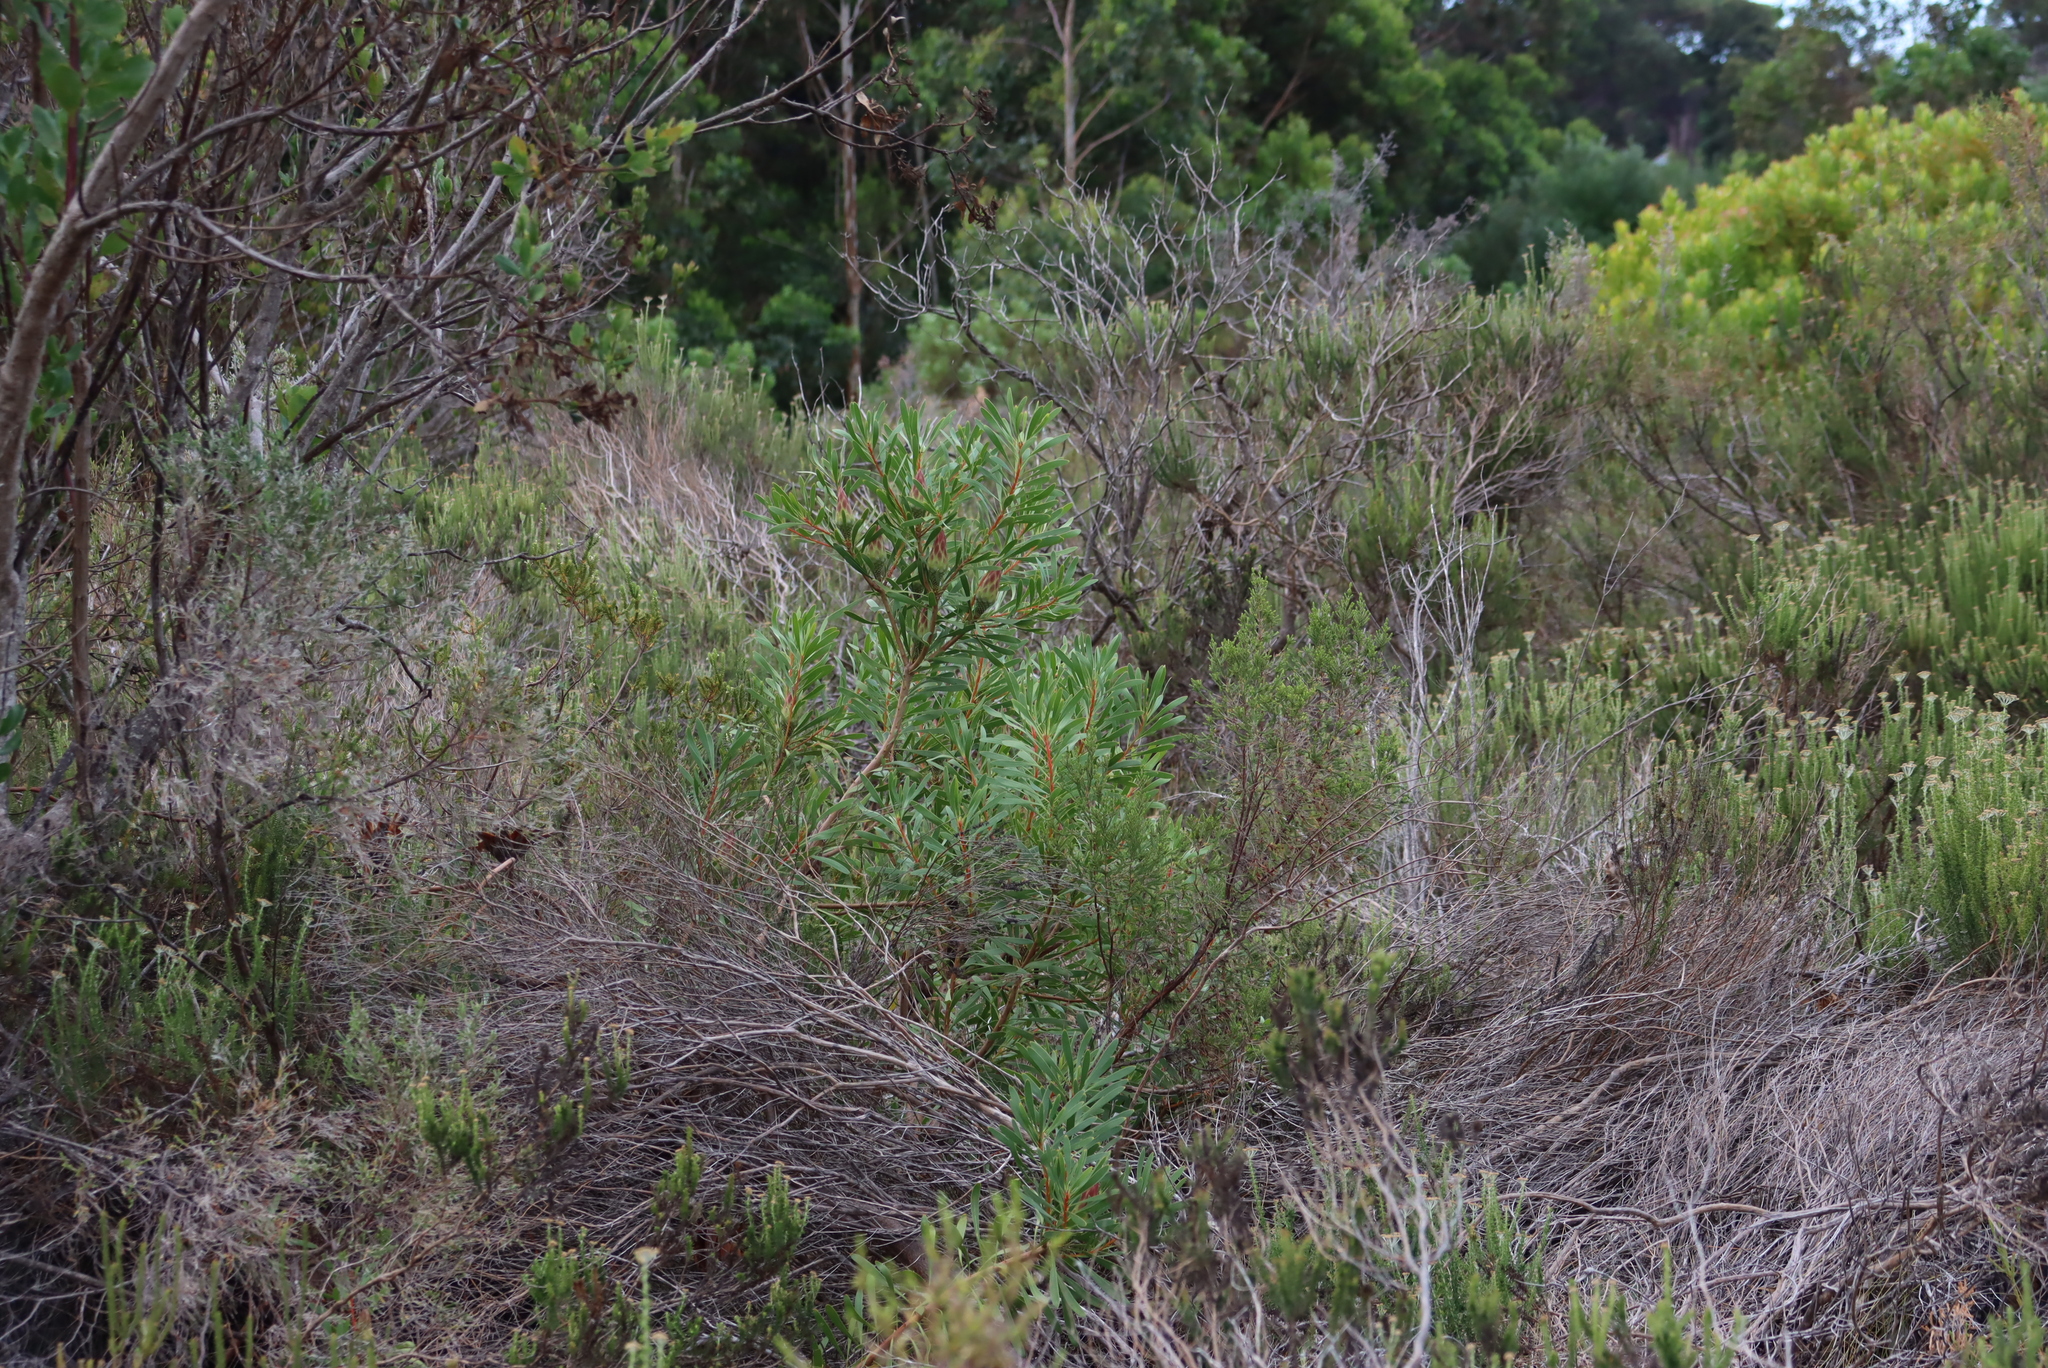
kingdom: Plantae
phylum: Tracheophyta
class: Magnoliopsida
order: Proteales
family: Proteaceae
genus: Protea
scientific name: Protea repens
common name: Sugarbush
